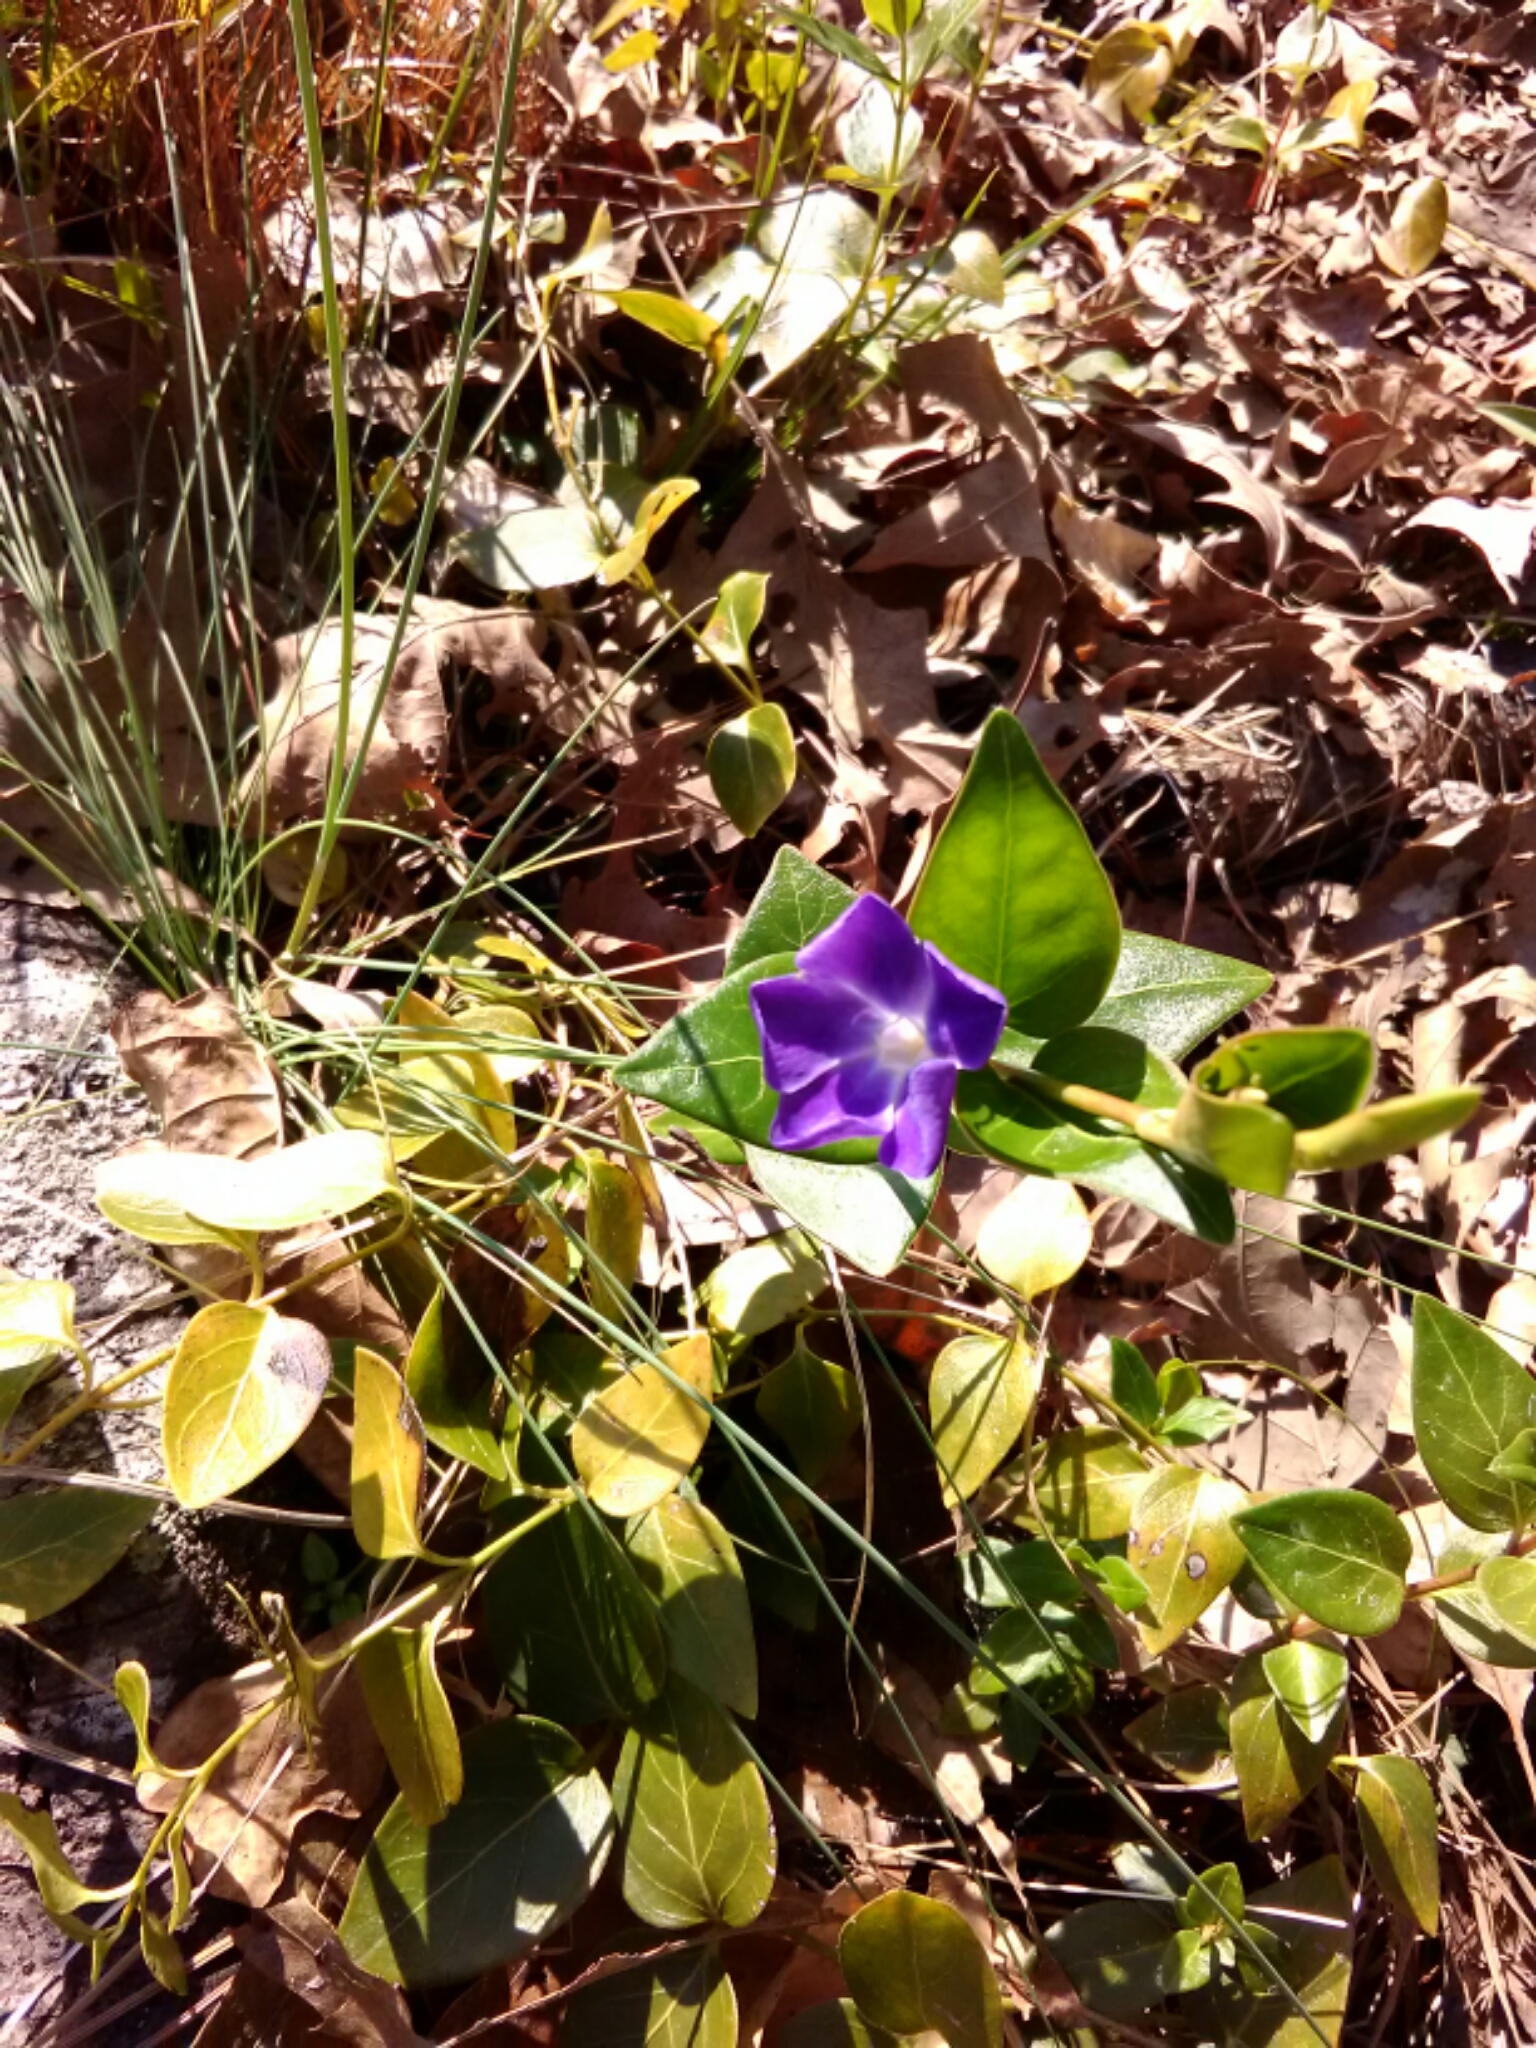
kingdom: Plantae
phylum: Tracheophyta
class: Magnoliopsida
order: Gentianales
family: Apocynaceae
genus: Vinca
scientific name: Vinca major
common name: Greater periwinkle
